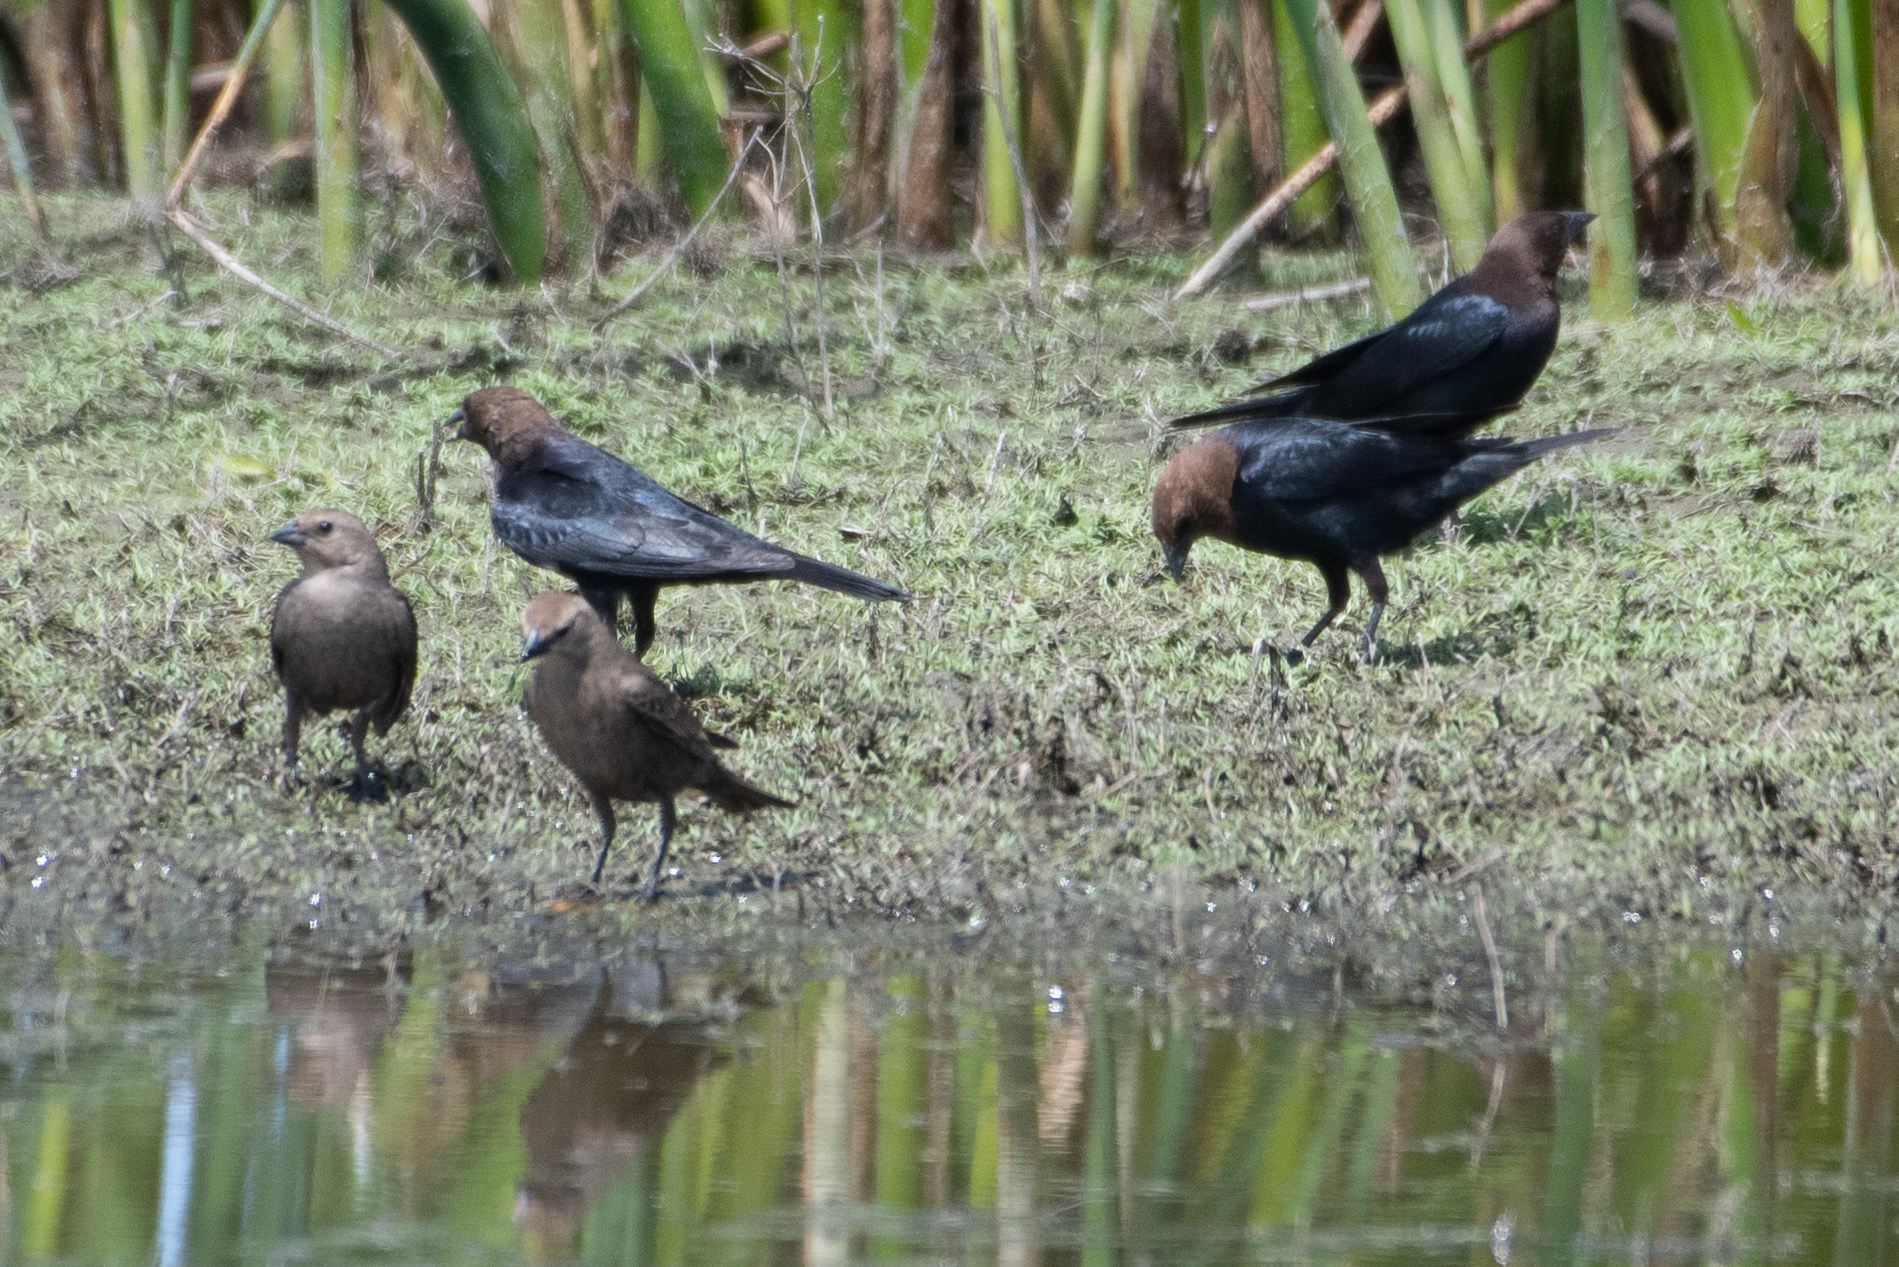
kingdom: Animalia
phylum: Chordata
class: Aves
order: Passeriformes
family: Icteridae
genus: Molothrus
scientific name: Molothrus ater
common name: Brown-headed cowbird
